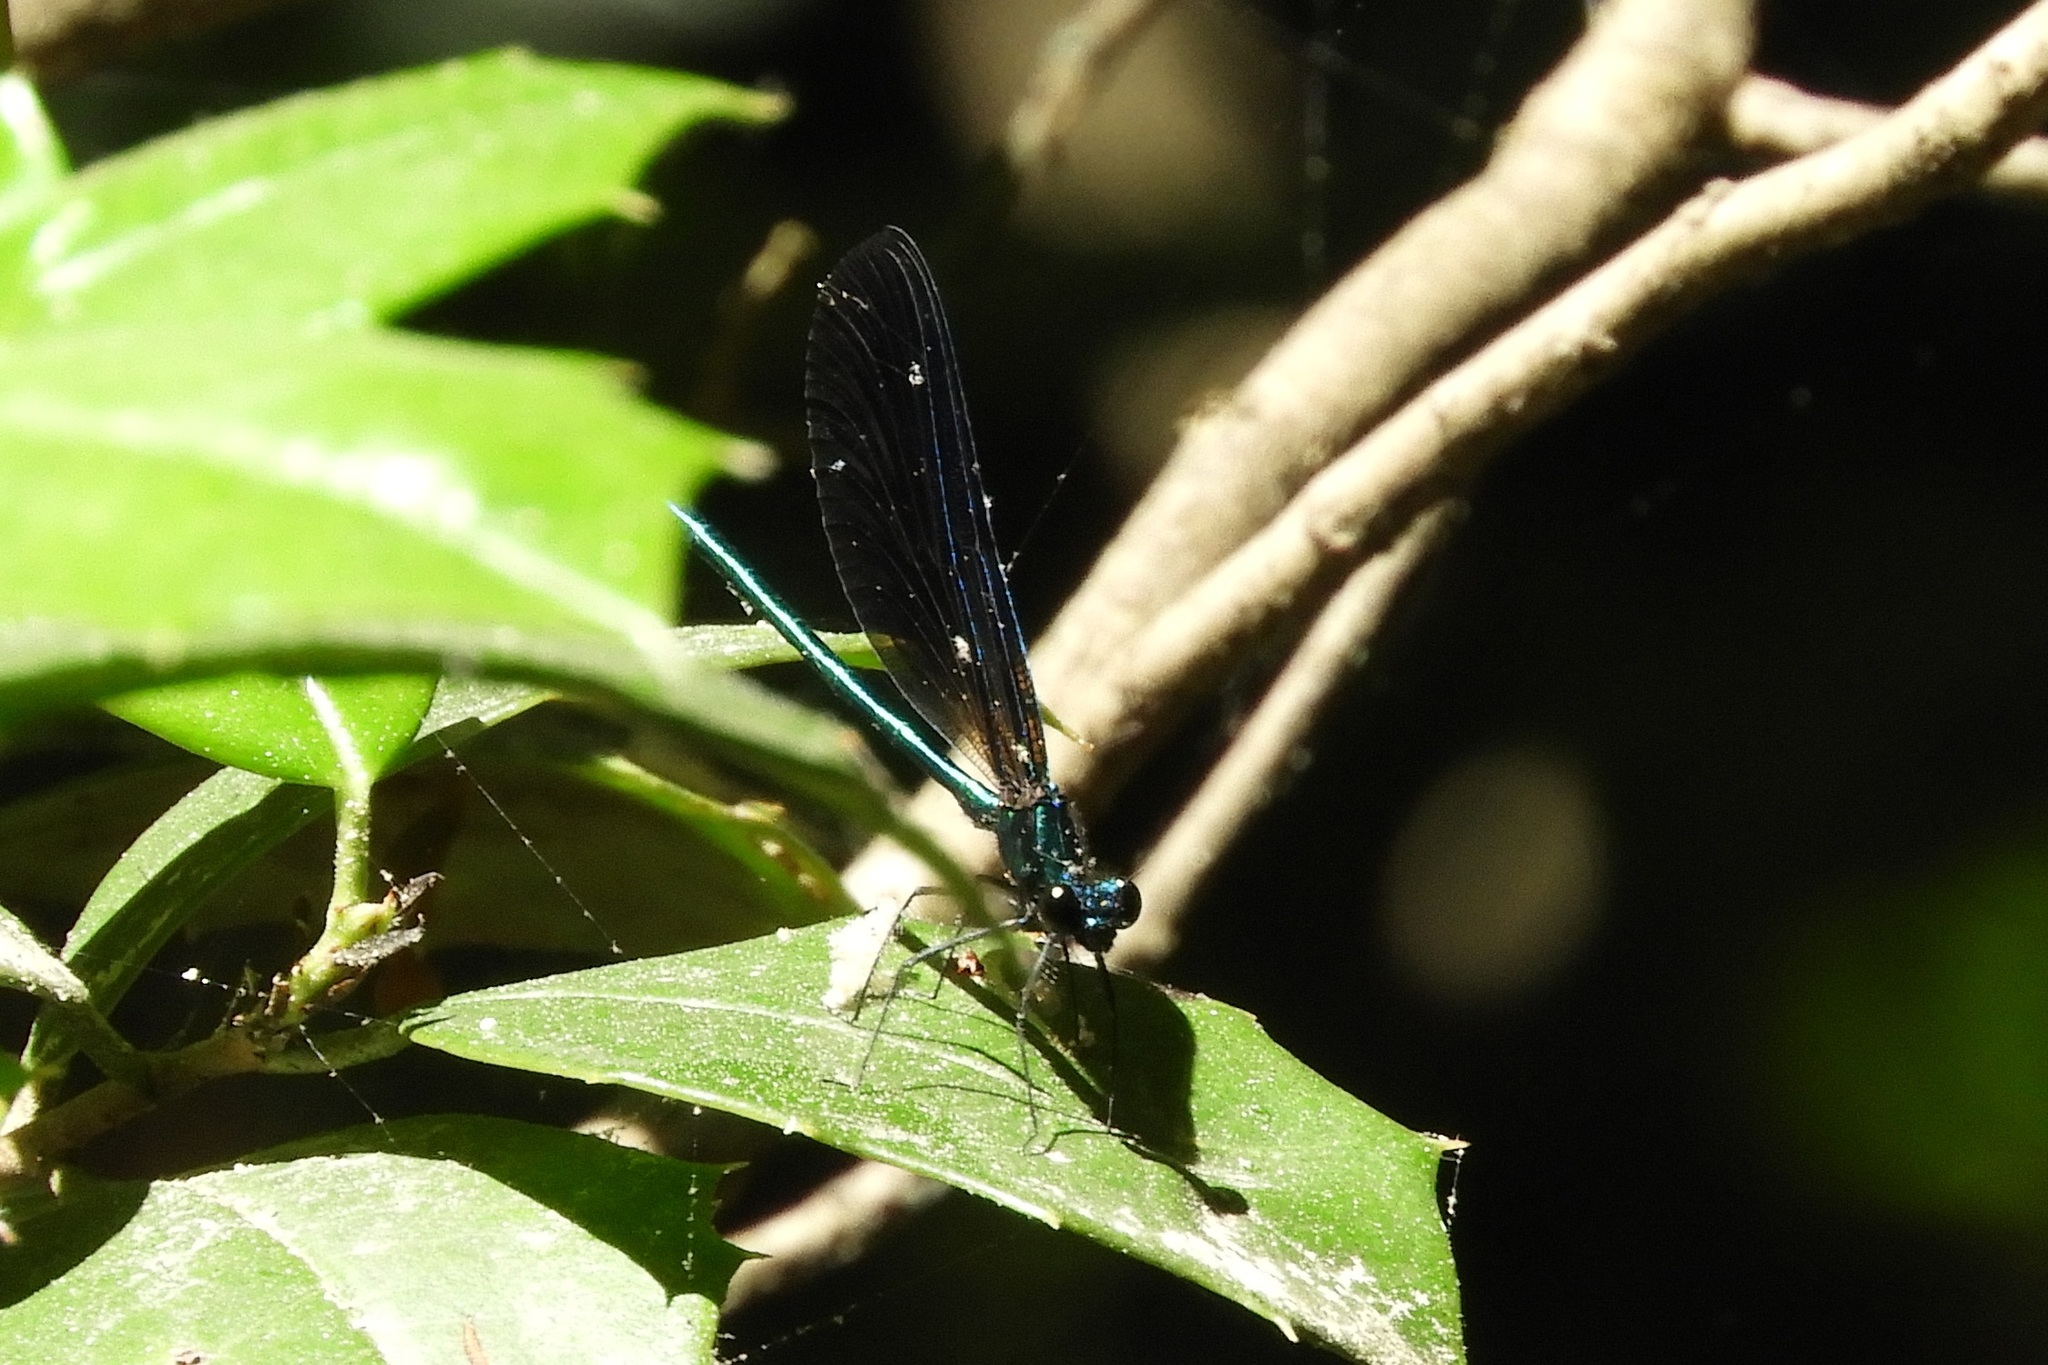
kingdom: Animalia
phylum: Arthropoda
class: Insecta
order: Odonata
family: Calopterygidae
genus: Calopteryx
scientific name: Calopteryx maculata
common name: Ebony jewelwing
